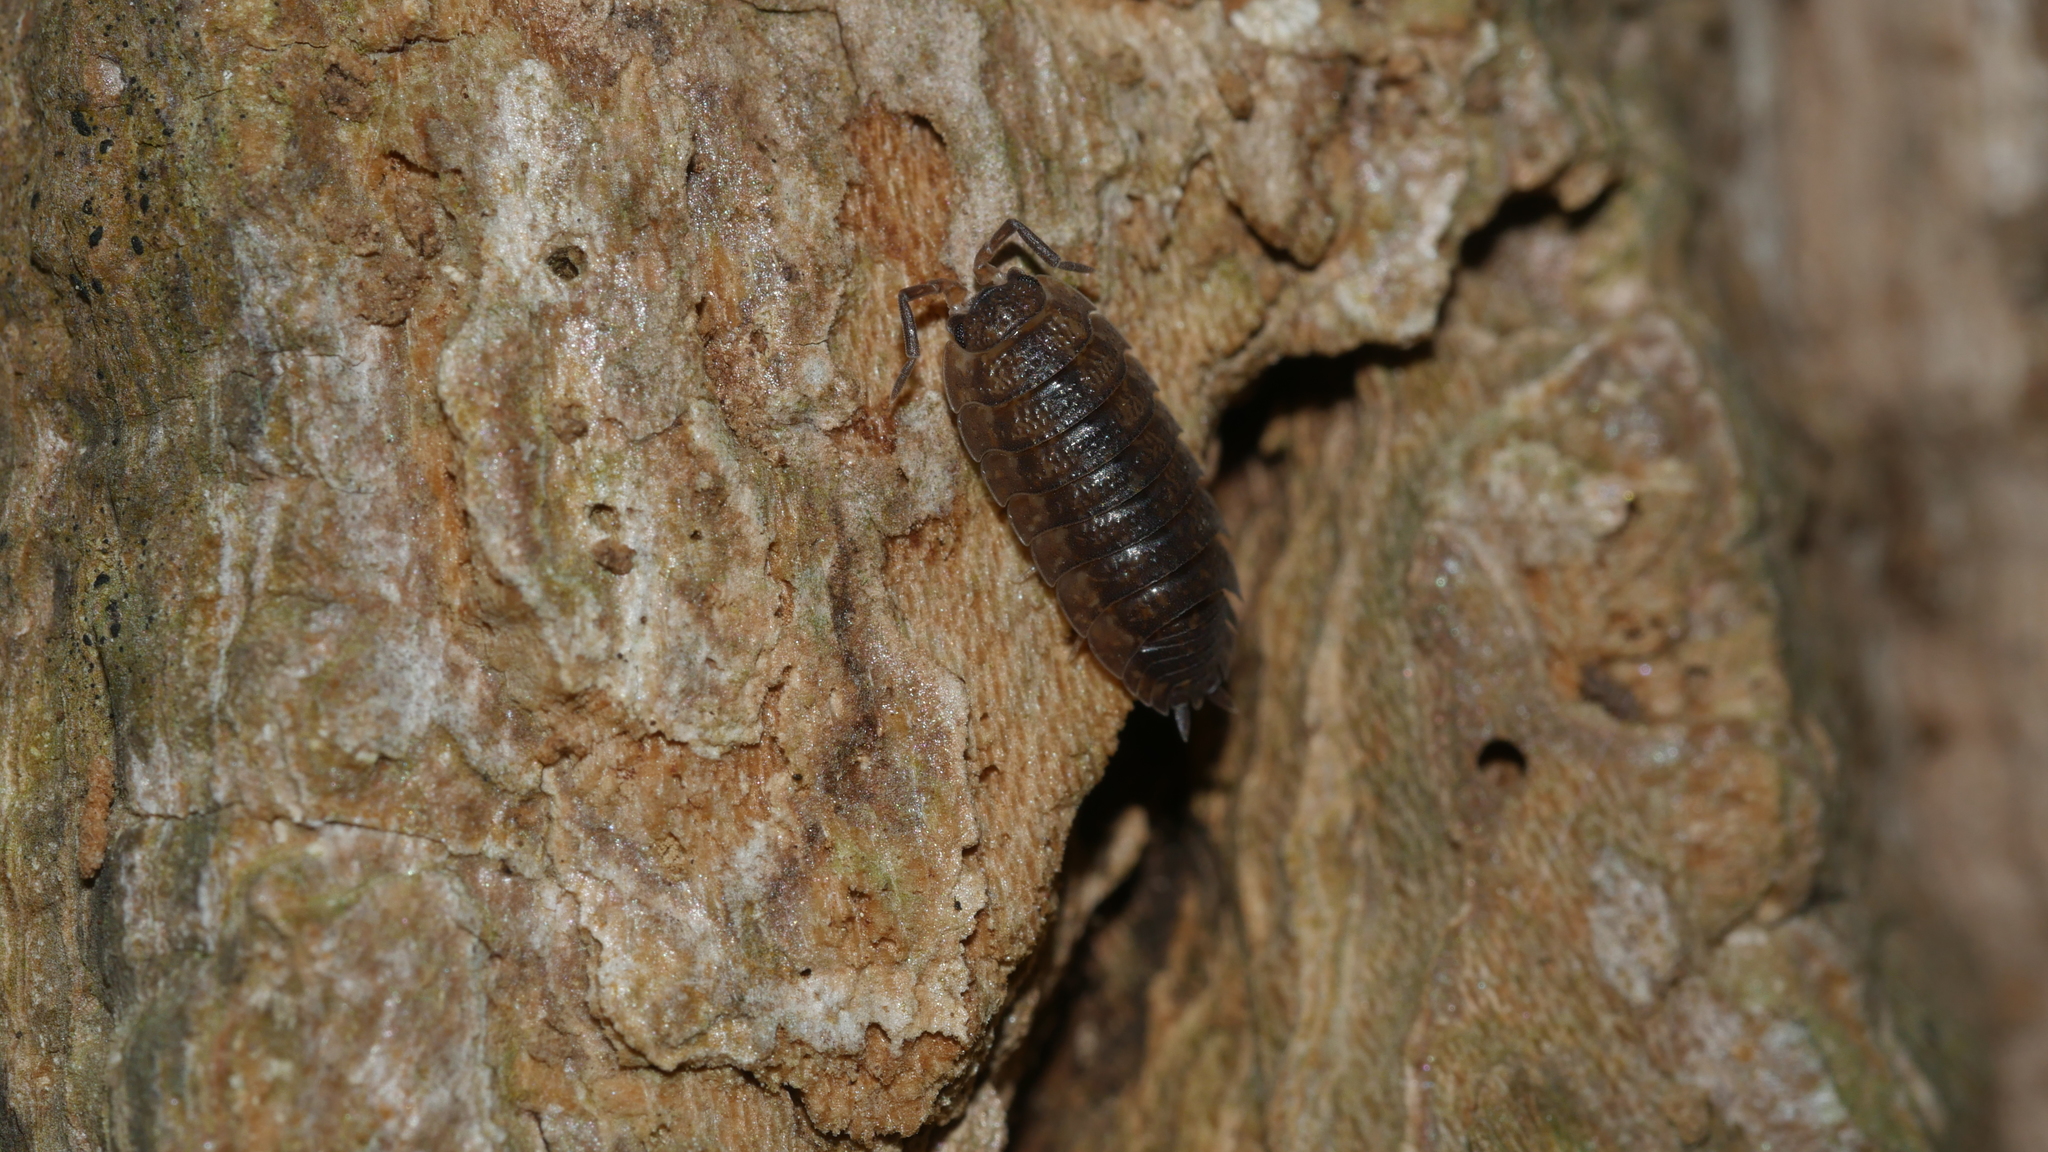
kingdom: Animalia
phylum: Arthropoda
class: Malacostraca
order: Isopoda
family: Porcellionidae
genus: Porcellio
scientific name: Porcellio scaber
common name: Common rough woodlouse
